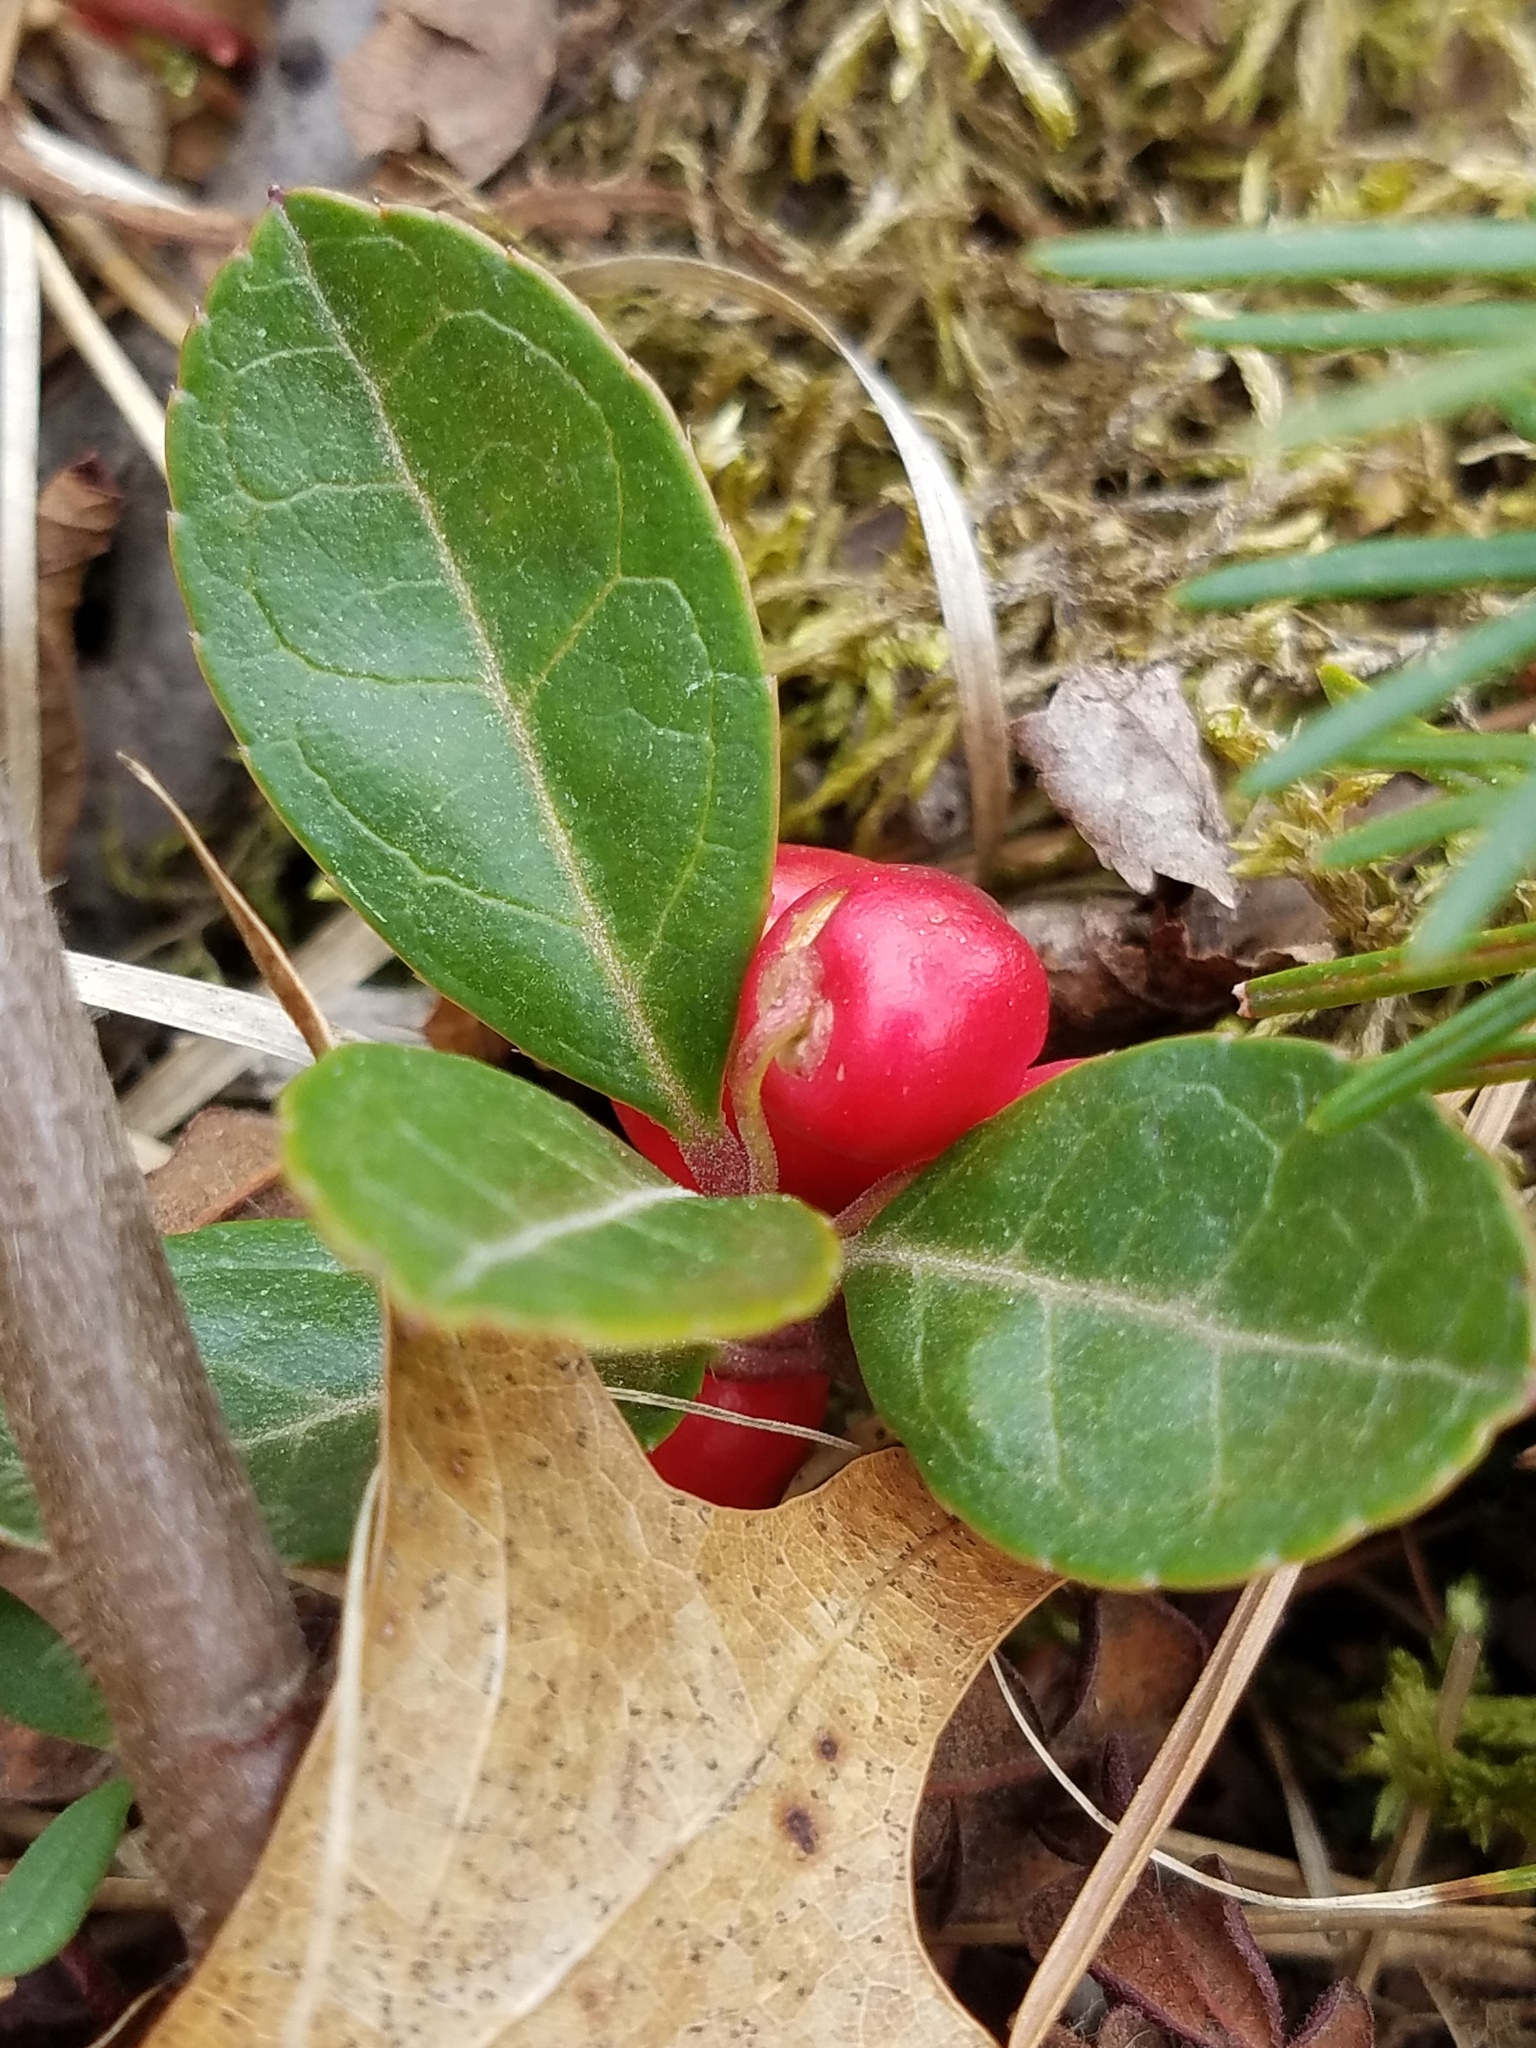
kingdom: Plantae
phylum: Tracheophyta
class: Magnoliopsida
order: Ericales
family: Ericaceae
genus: Gaultheria
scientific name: Gaultheria procumbens
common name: Checkerberry
